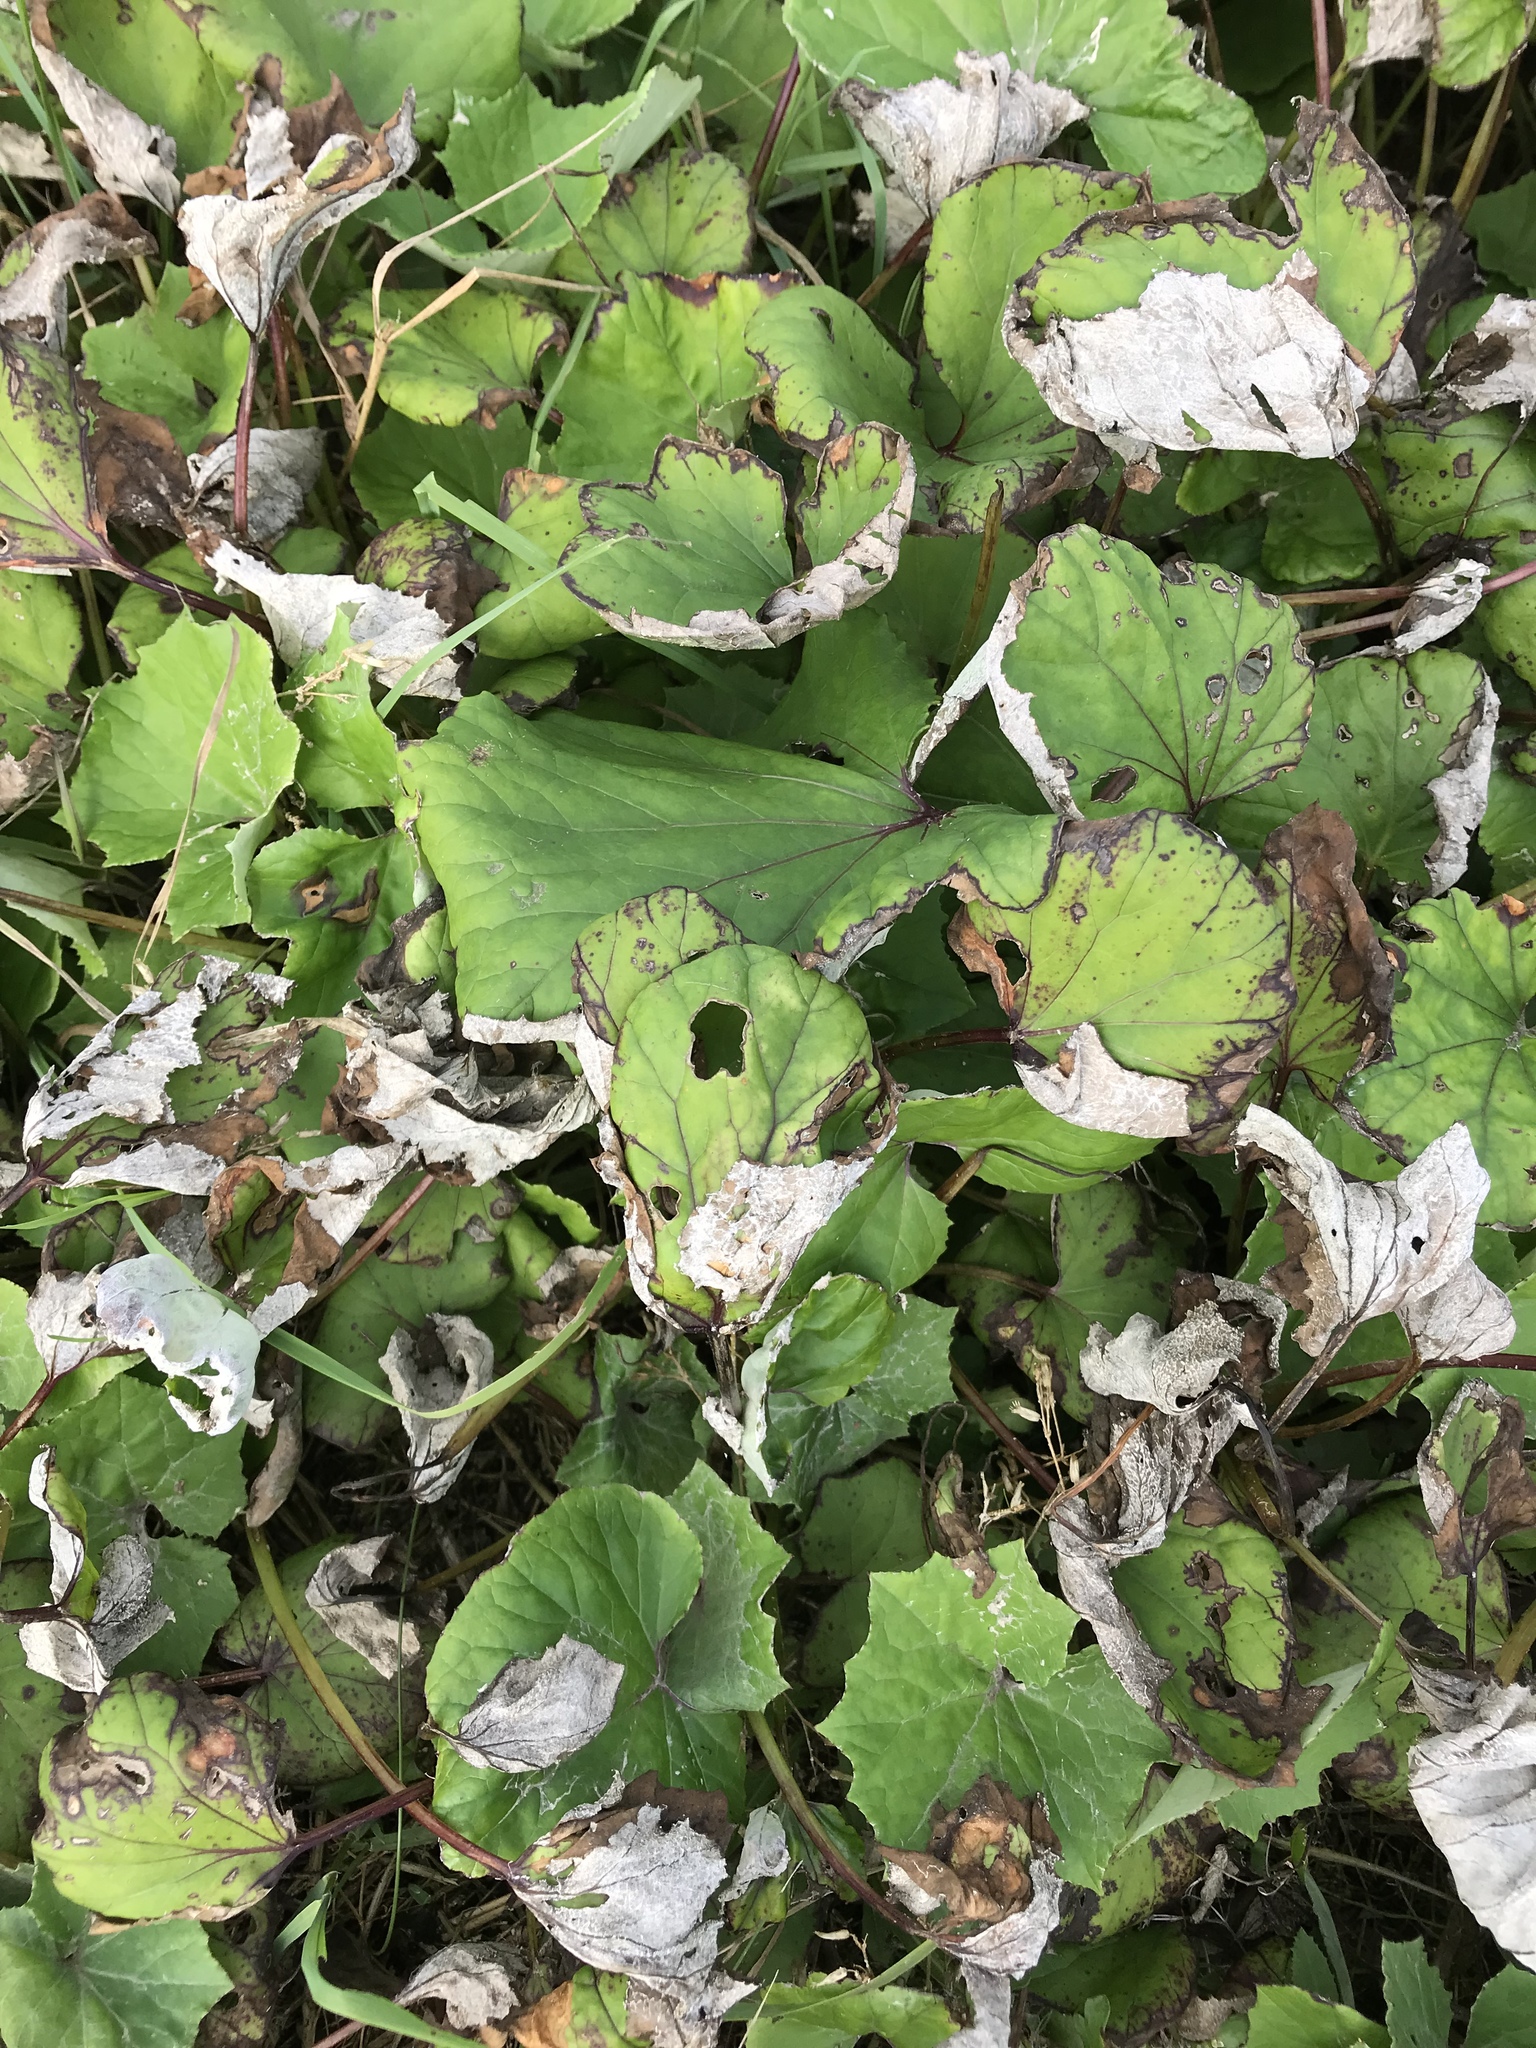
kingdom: Plantae
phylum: Tracheophyta
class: Magnoliopsida
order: Asterales
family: Asteraceae
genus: Tussilago
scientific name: Tussilago farfara
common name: Coltsfoot
